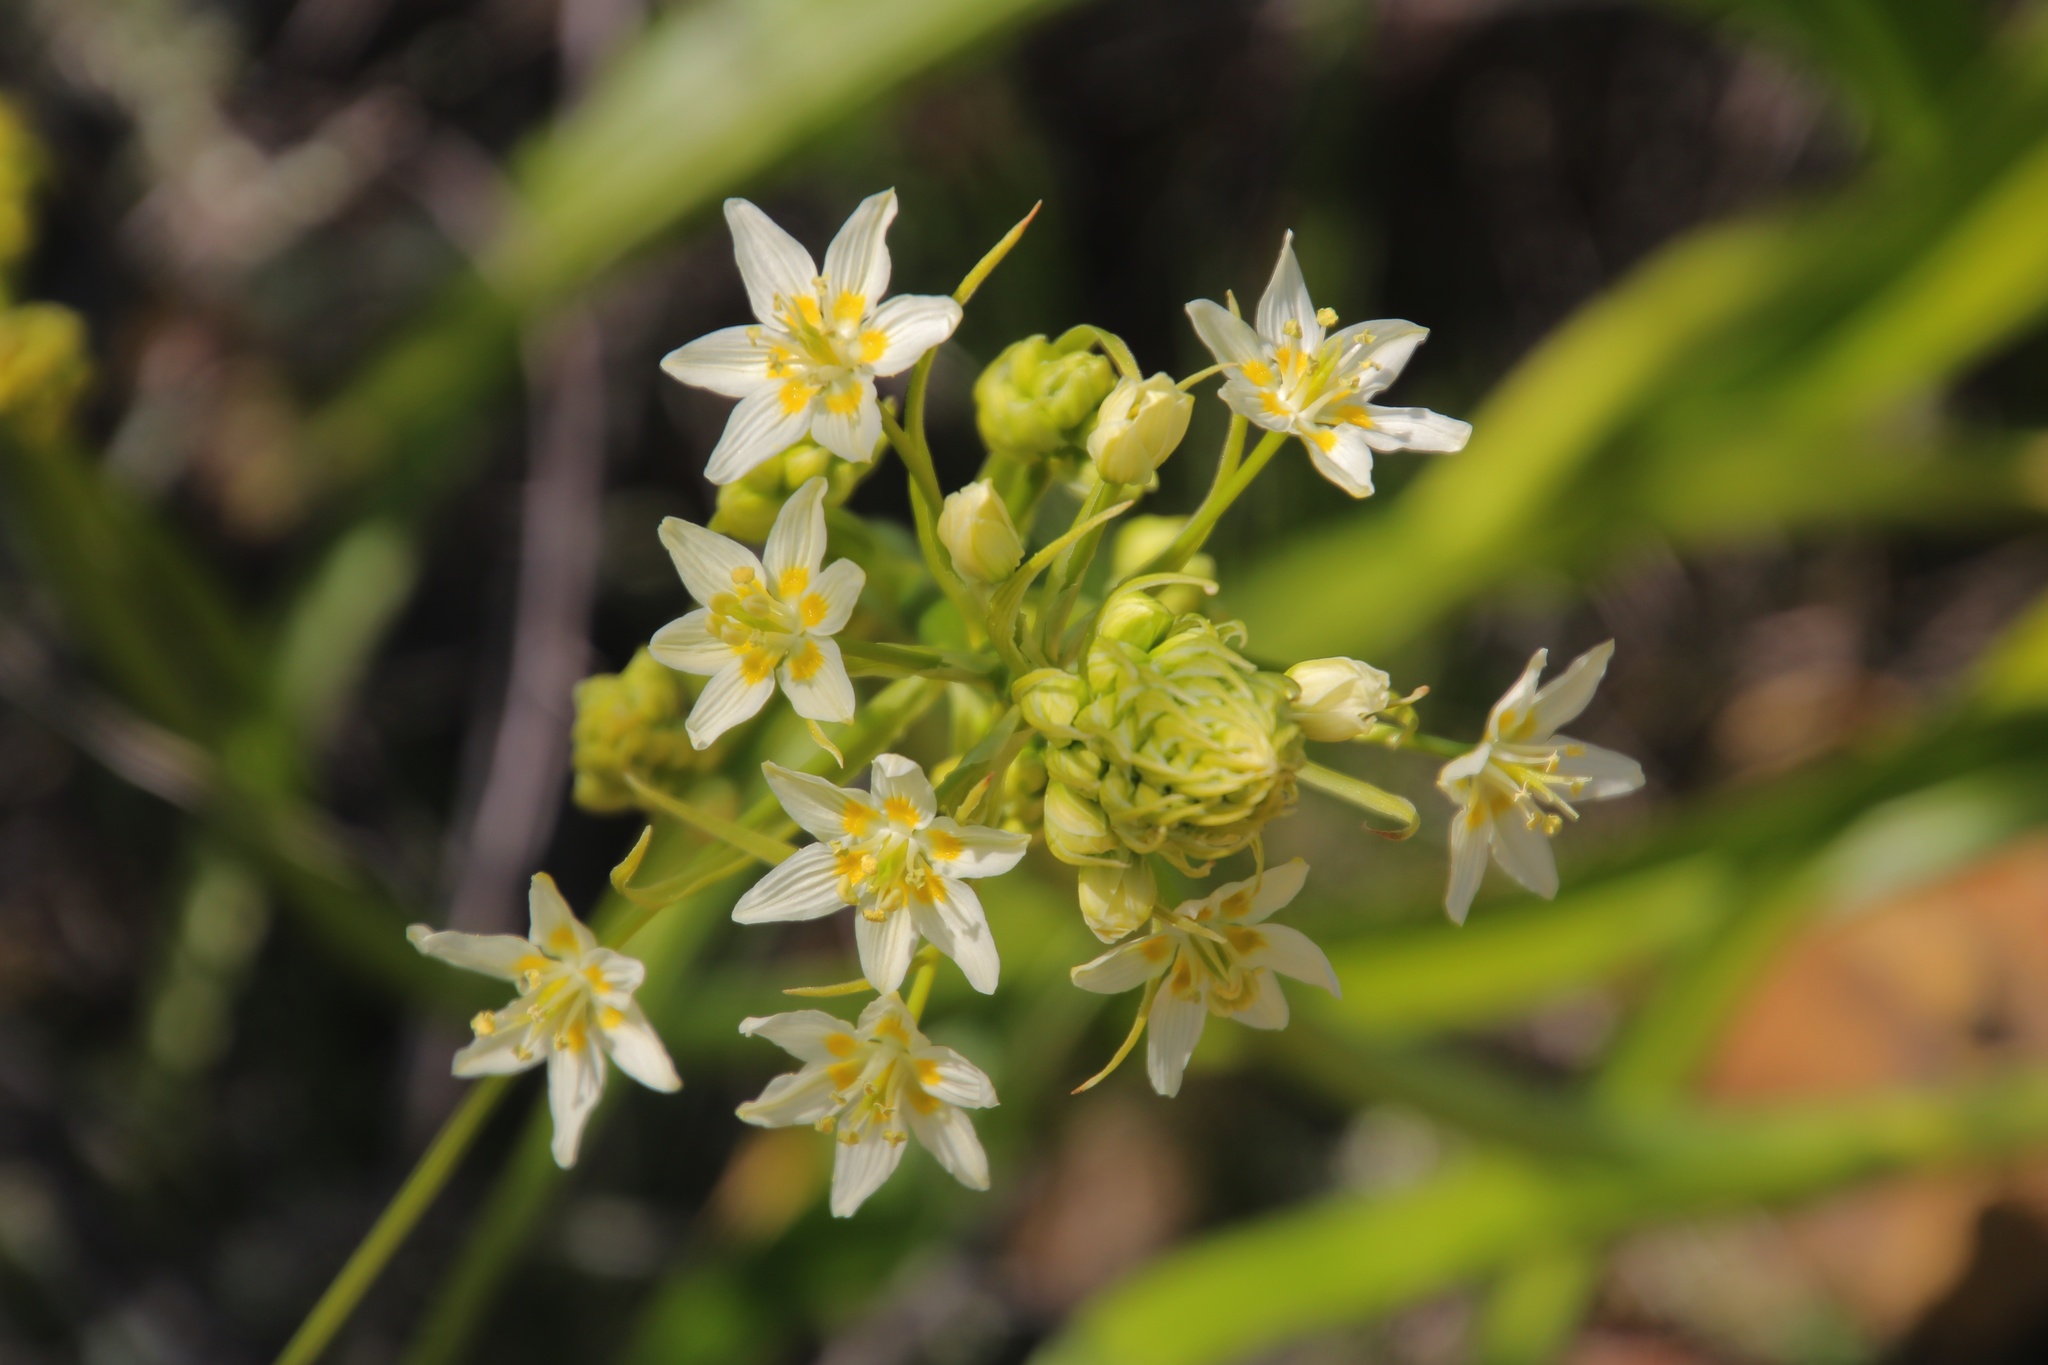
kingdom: Plantae
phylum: Tracheophyta
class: Liliopsida
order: Liliales
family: Melanthiaceae
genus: Toxicoscordion
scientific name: Toxicoscordion fremontii
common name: Fremont's death camas
